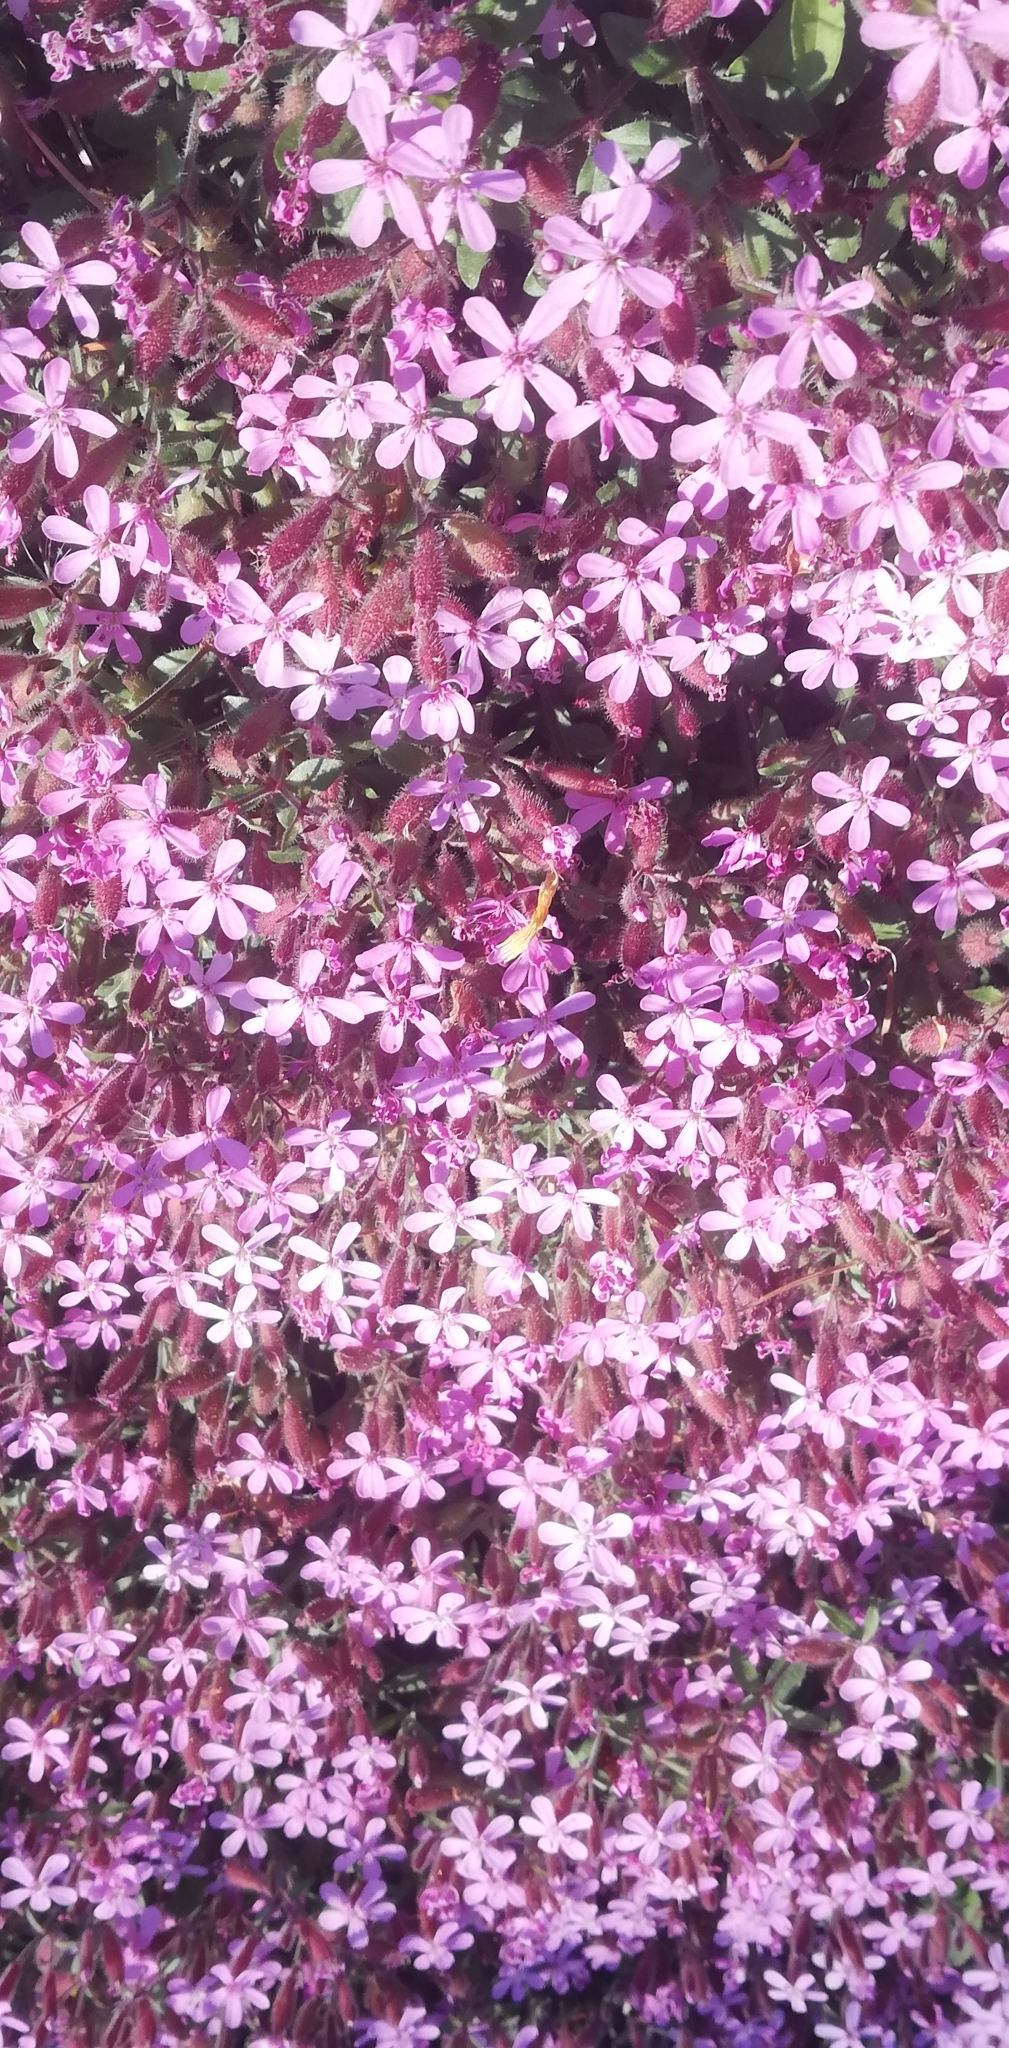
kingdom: Plantae
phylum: Tracheophyta
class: Magnoliopsida
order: Caryophyllales
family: Caryophyllaceae
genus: Saponaria
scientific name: Saponaria ocymoides
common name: Rock soapwort
